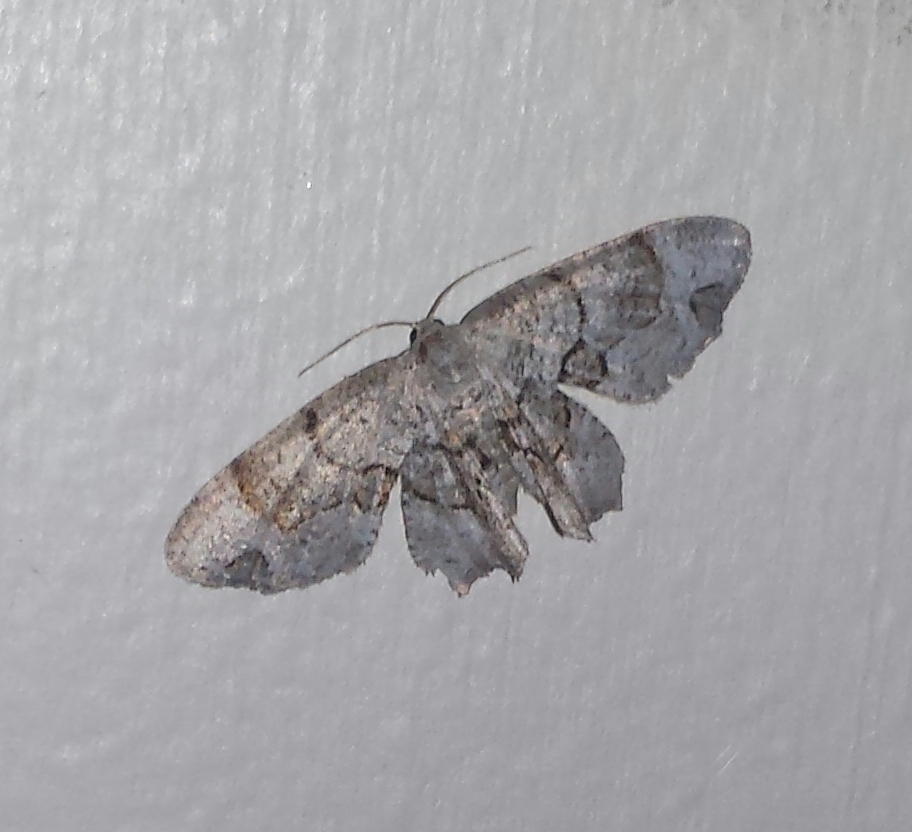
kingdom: Animalia
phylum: Arthropoda
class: Insecta
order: Lepidoptera
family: Uraniidae
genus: Epiplema
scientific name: Epiplema Callizzia amorata
